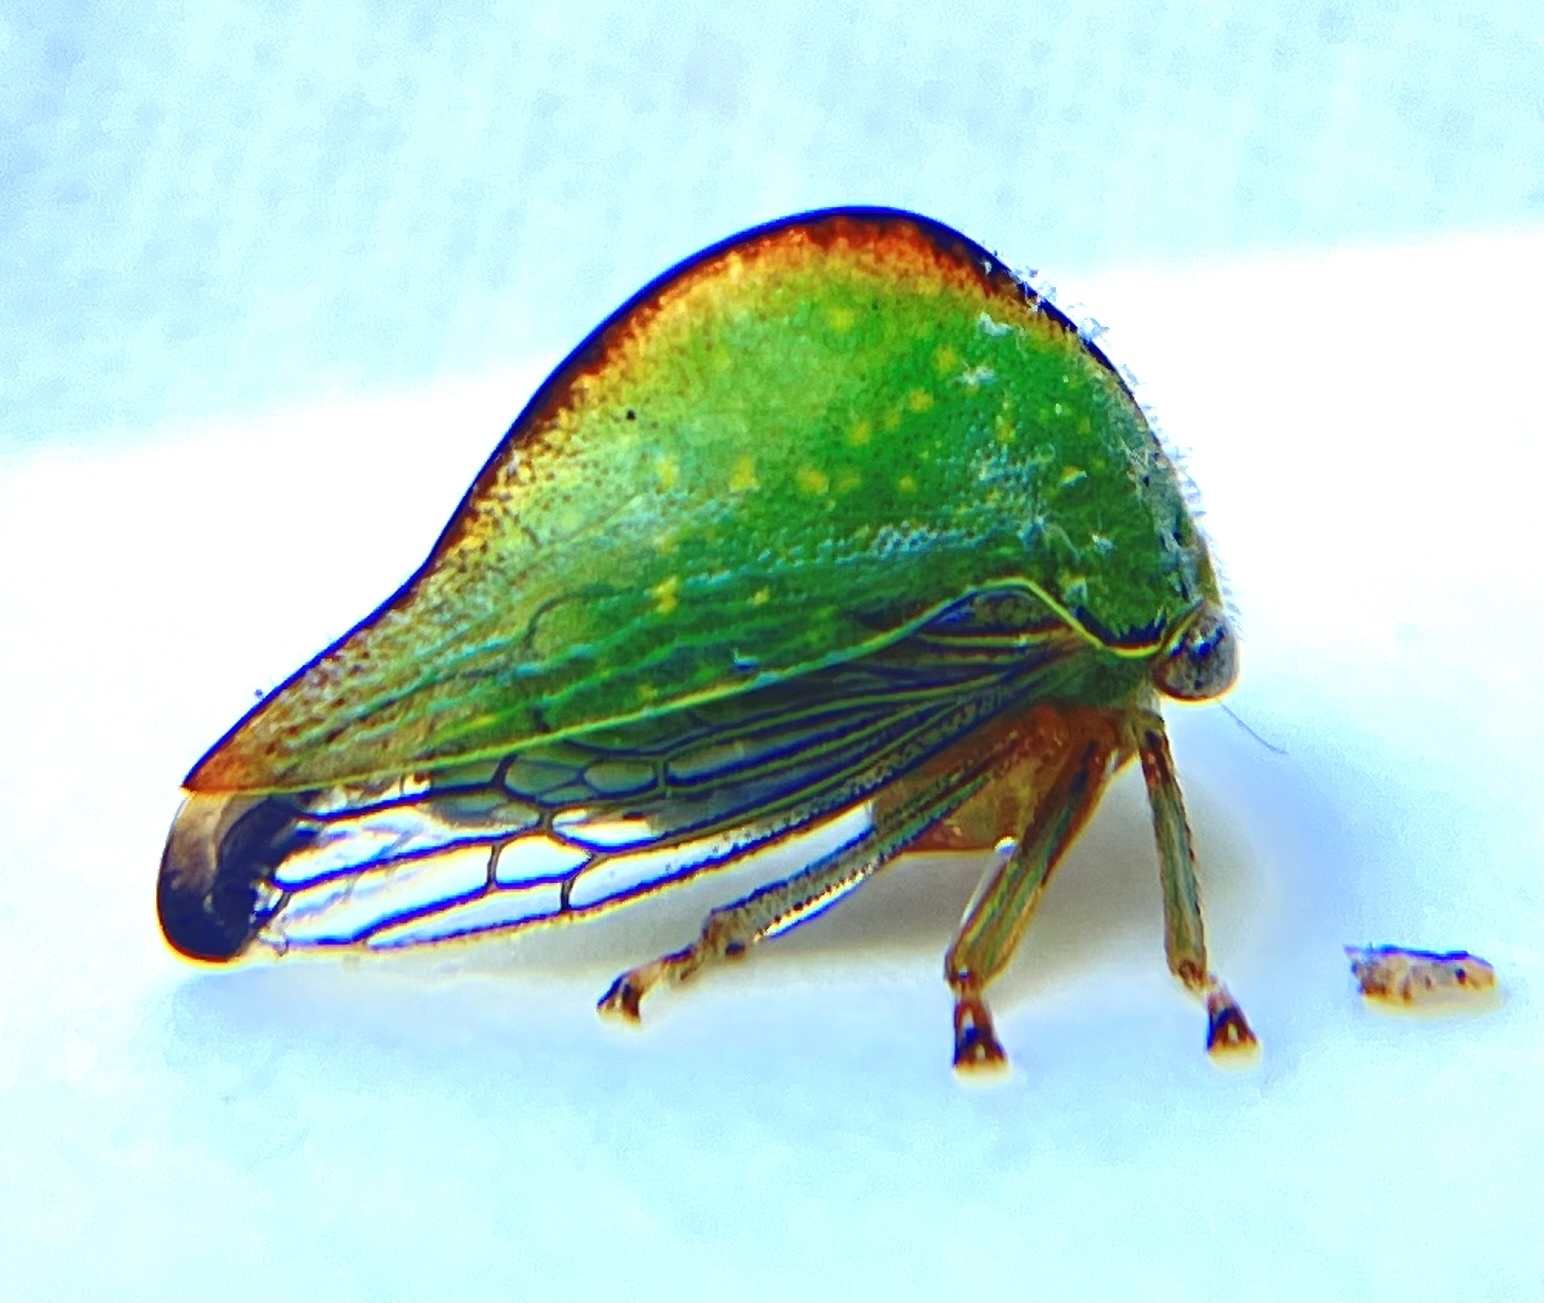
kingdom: Animalia
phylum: Arthropoda
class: Insecta
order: Hemiptera
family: Membracidae
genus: Archasia
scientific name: Archasia pallida
